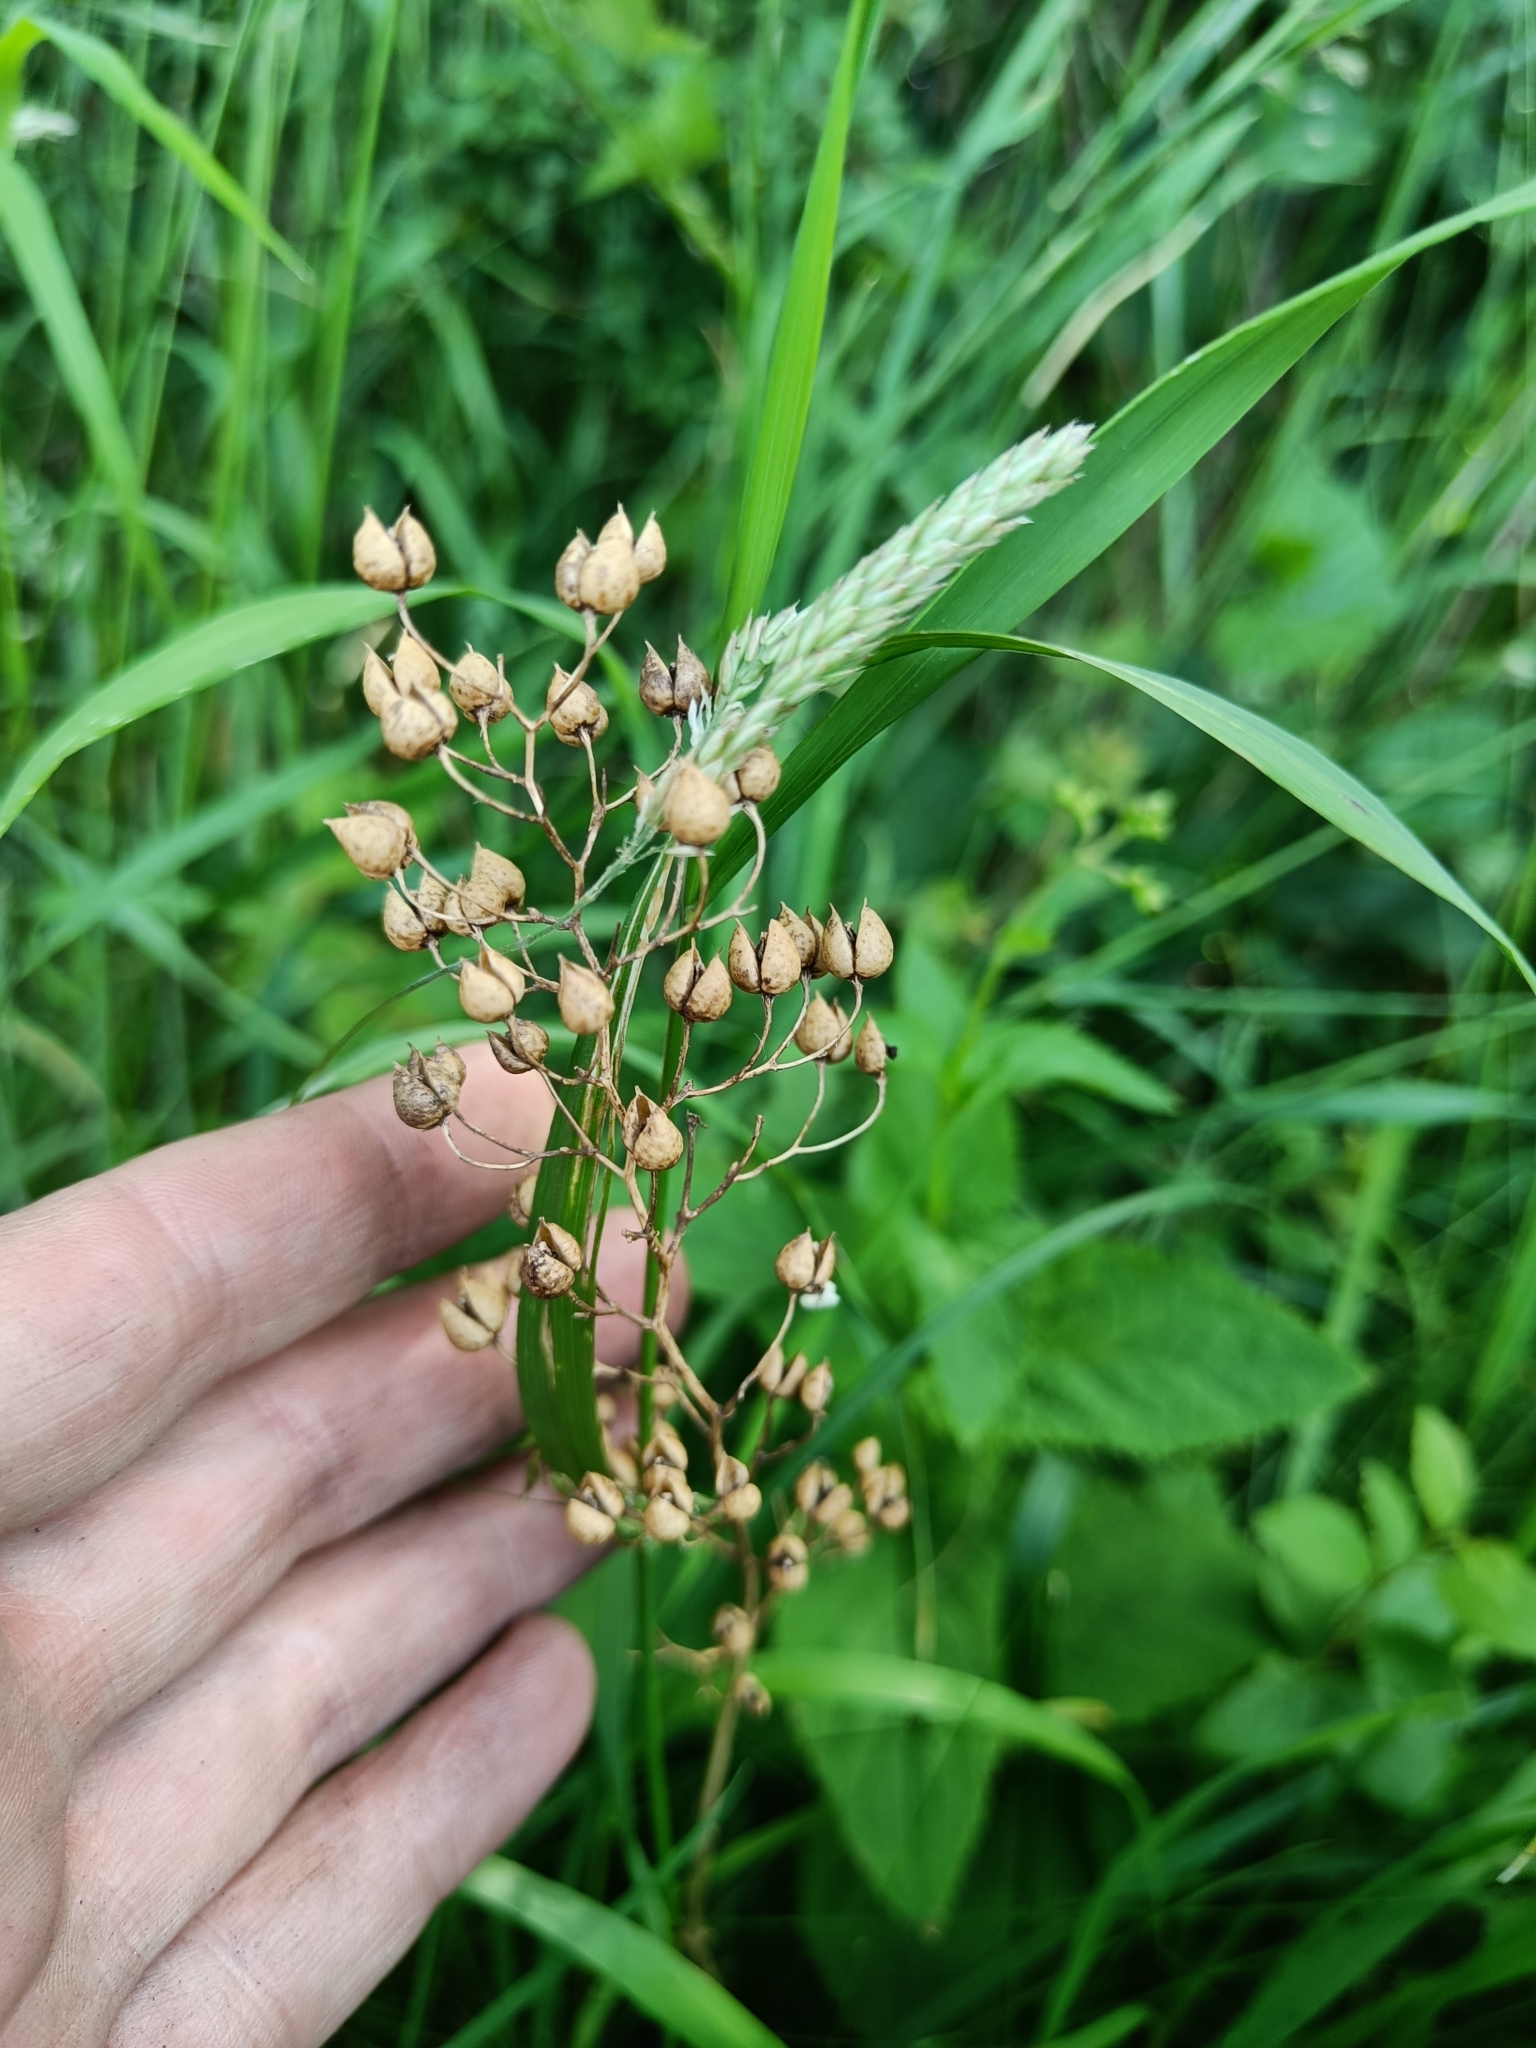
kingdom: Plantae
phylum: Tracheophyta
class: Magnoliopsida
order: Lamiales
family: Scrophulariaceae
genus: Scrophularia
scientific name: Scrophularia nodosa
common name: Common figwort
